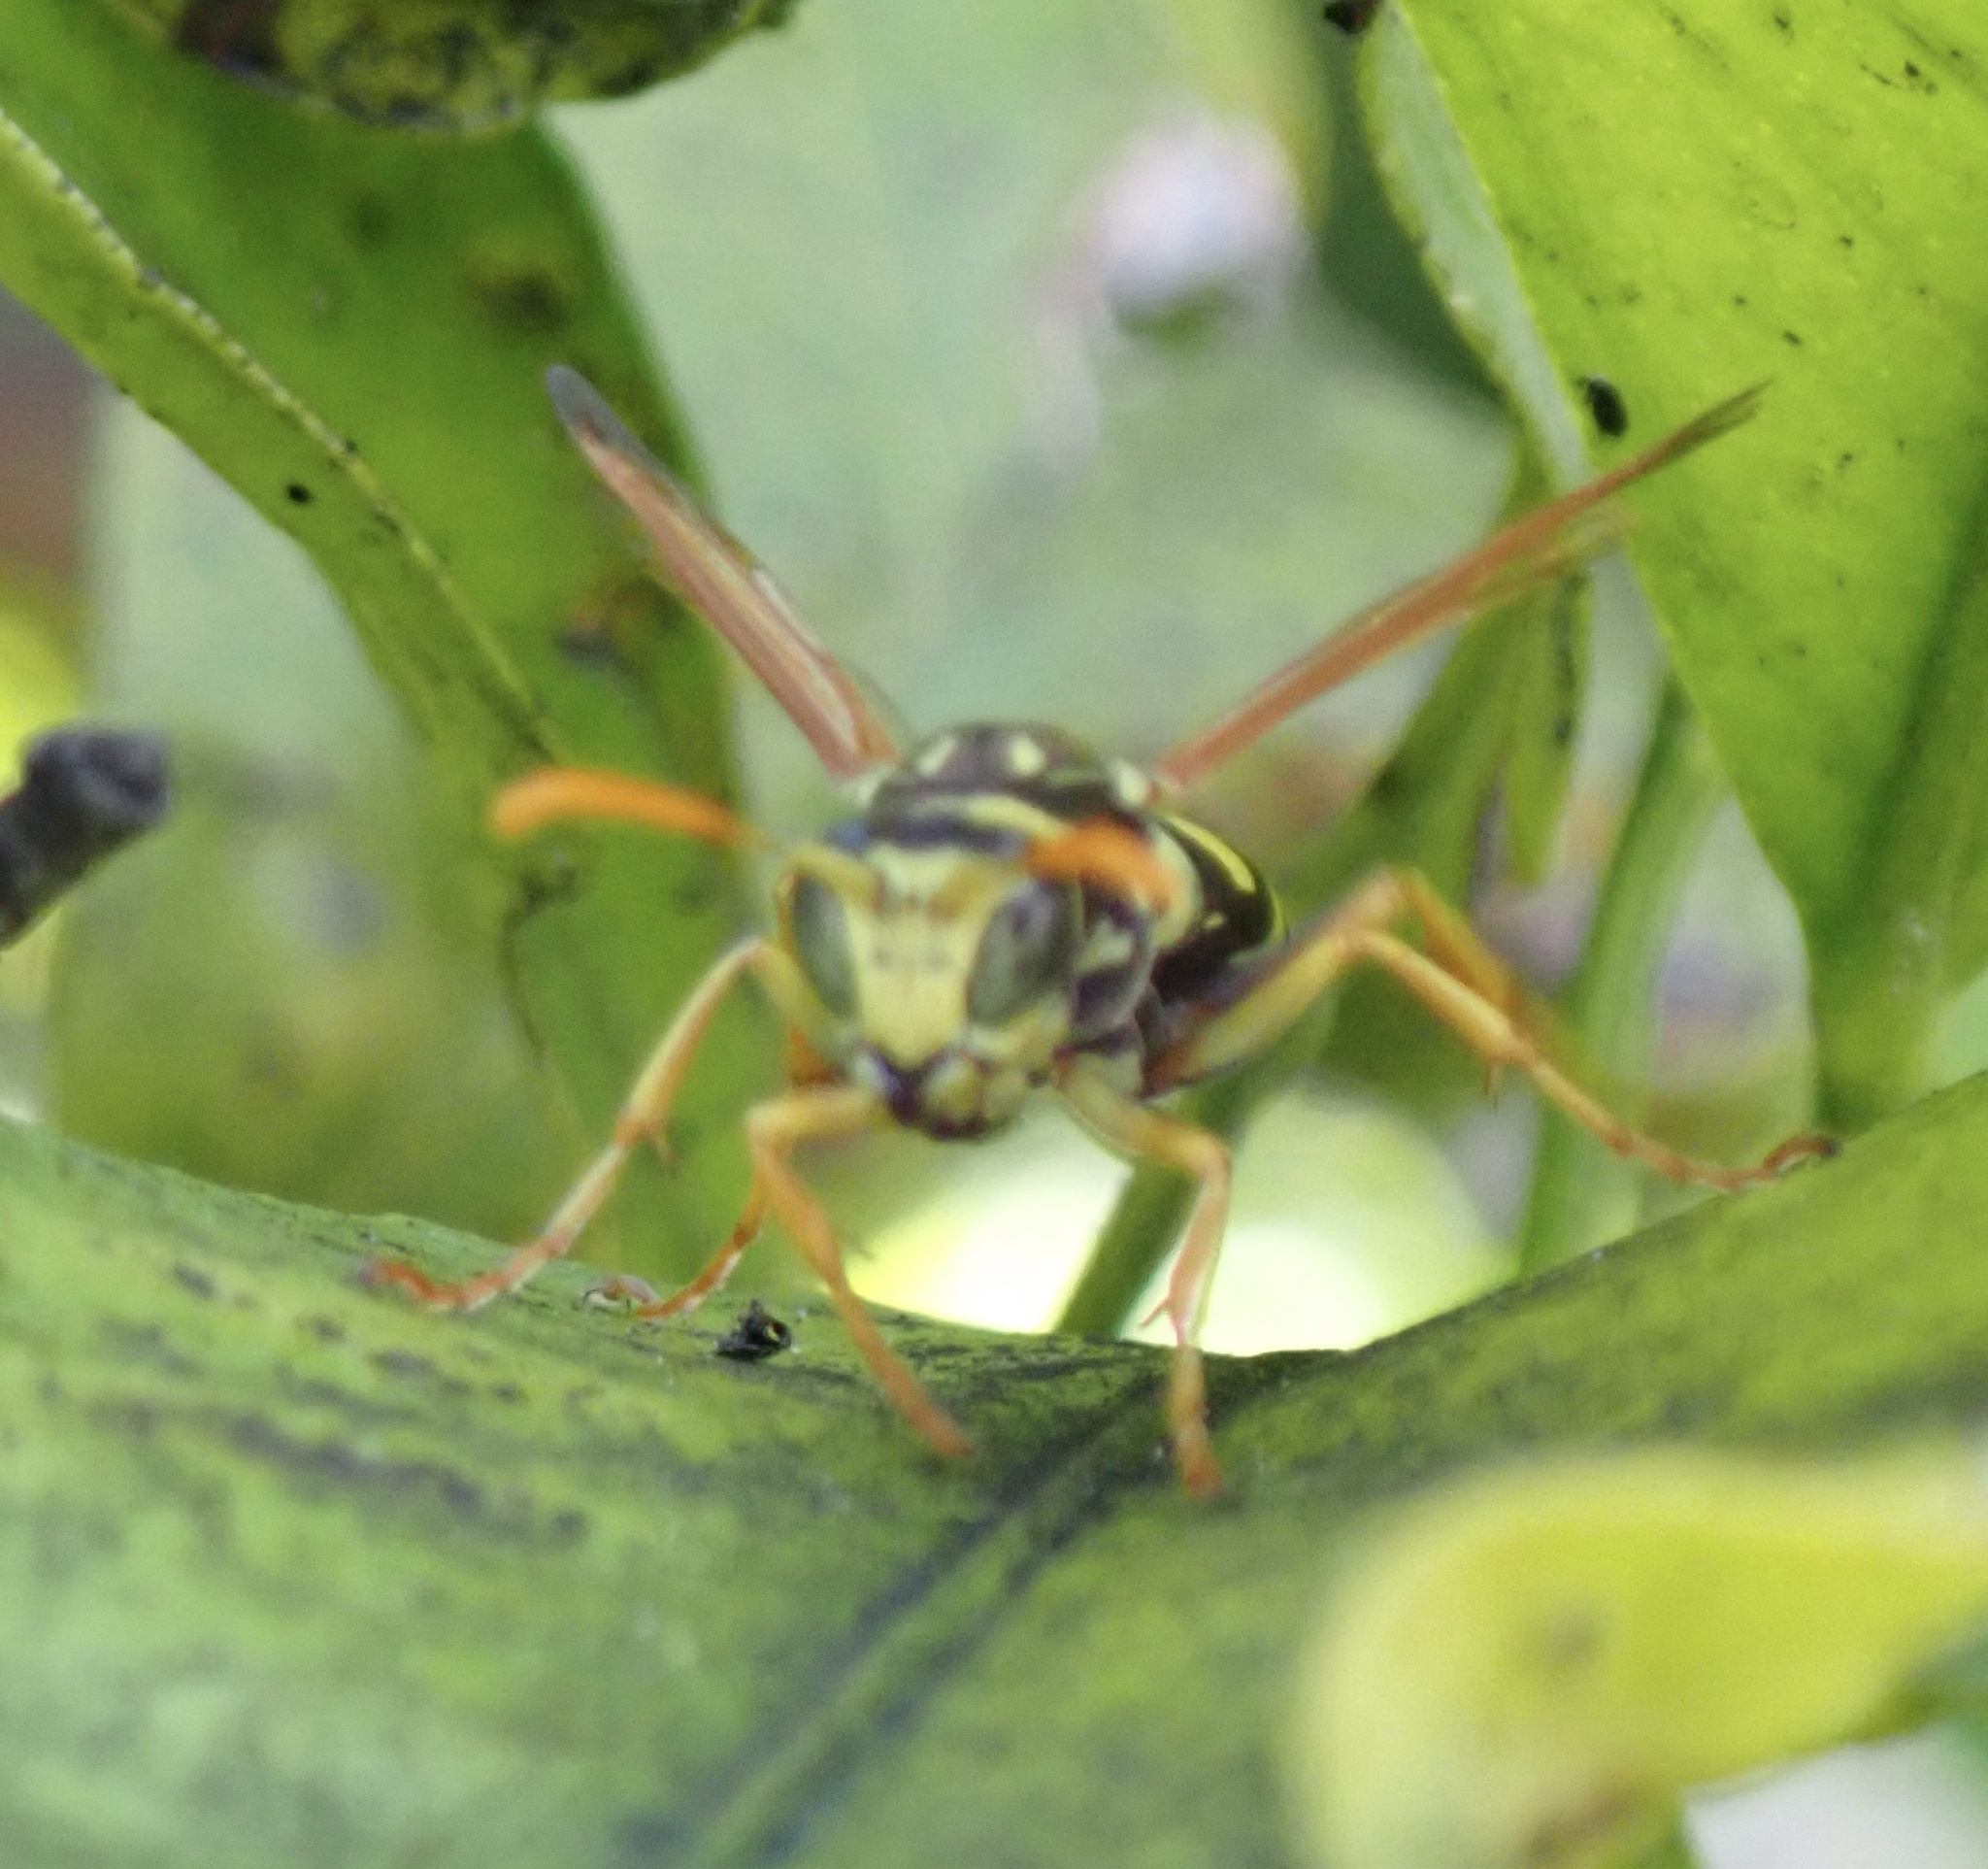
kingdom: Animalia
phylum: Arthropoda
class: Insecta
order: Hymenoptera
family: Eumenidae
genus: Polistes
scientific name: Polistes dominula
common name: Paper wasp
